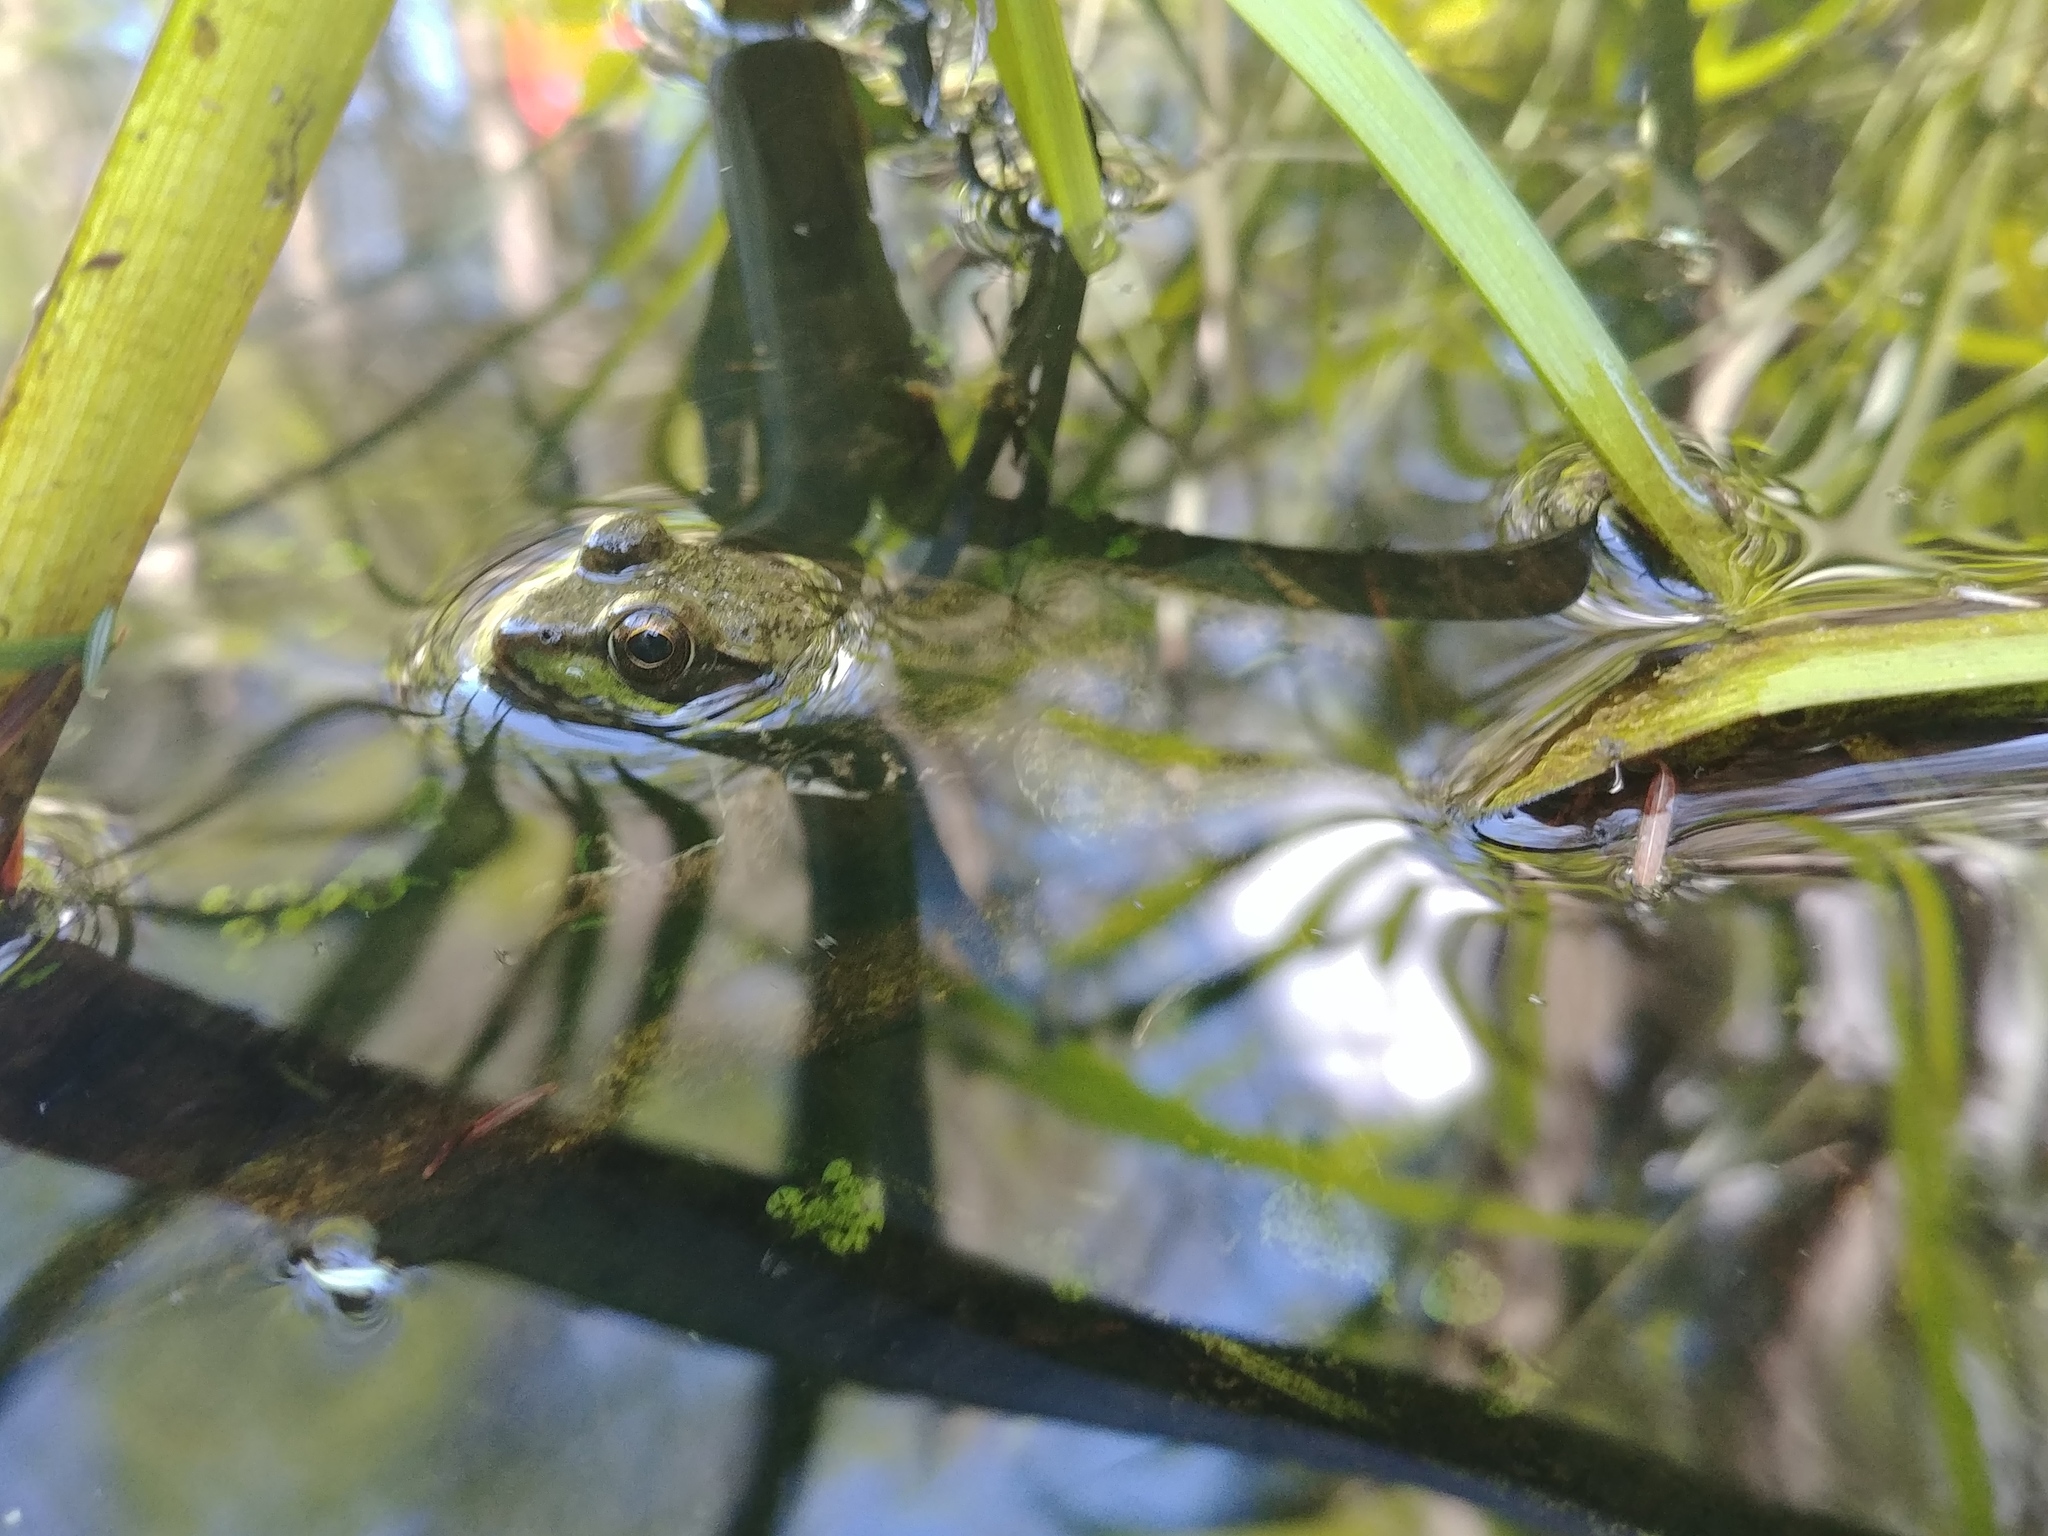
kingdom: Animalia
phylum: Chordata
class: Amphibia
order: Anura
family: Ranidae
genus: Lithobates
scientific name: Lithobates clamitans
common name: Green frog
